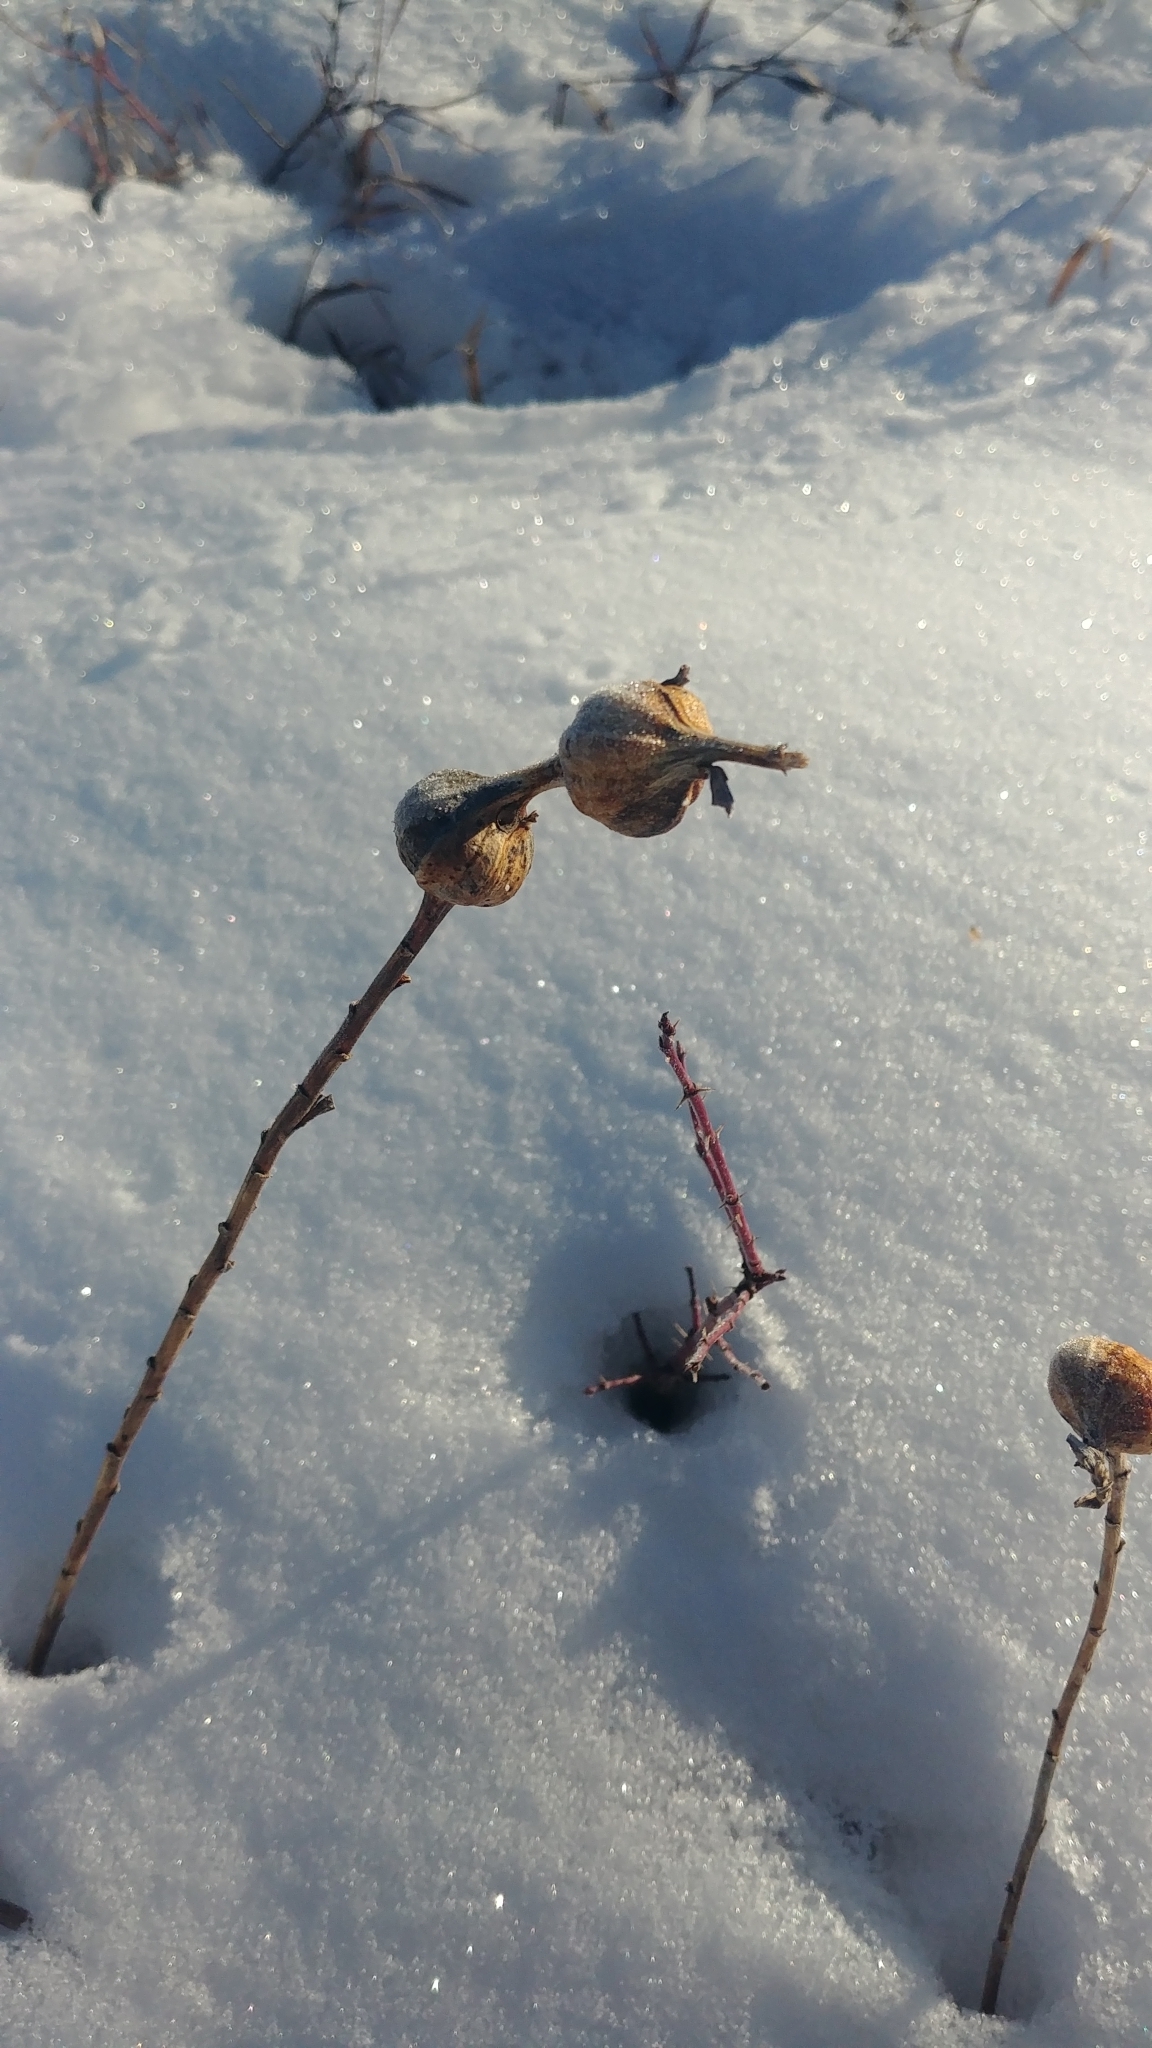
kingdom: Animalia
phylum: Arthropoda
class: Insecta
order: Diptera
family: Tephritidae
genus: Eurosta
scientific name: Eurosta solidaginis
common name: Goldenrod gall fly
